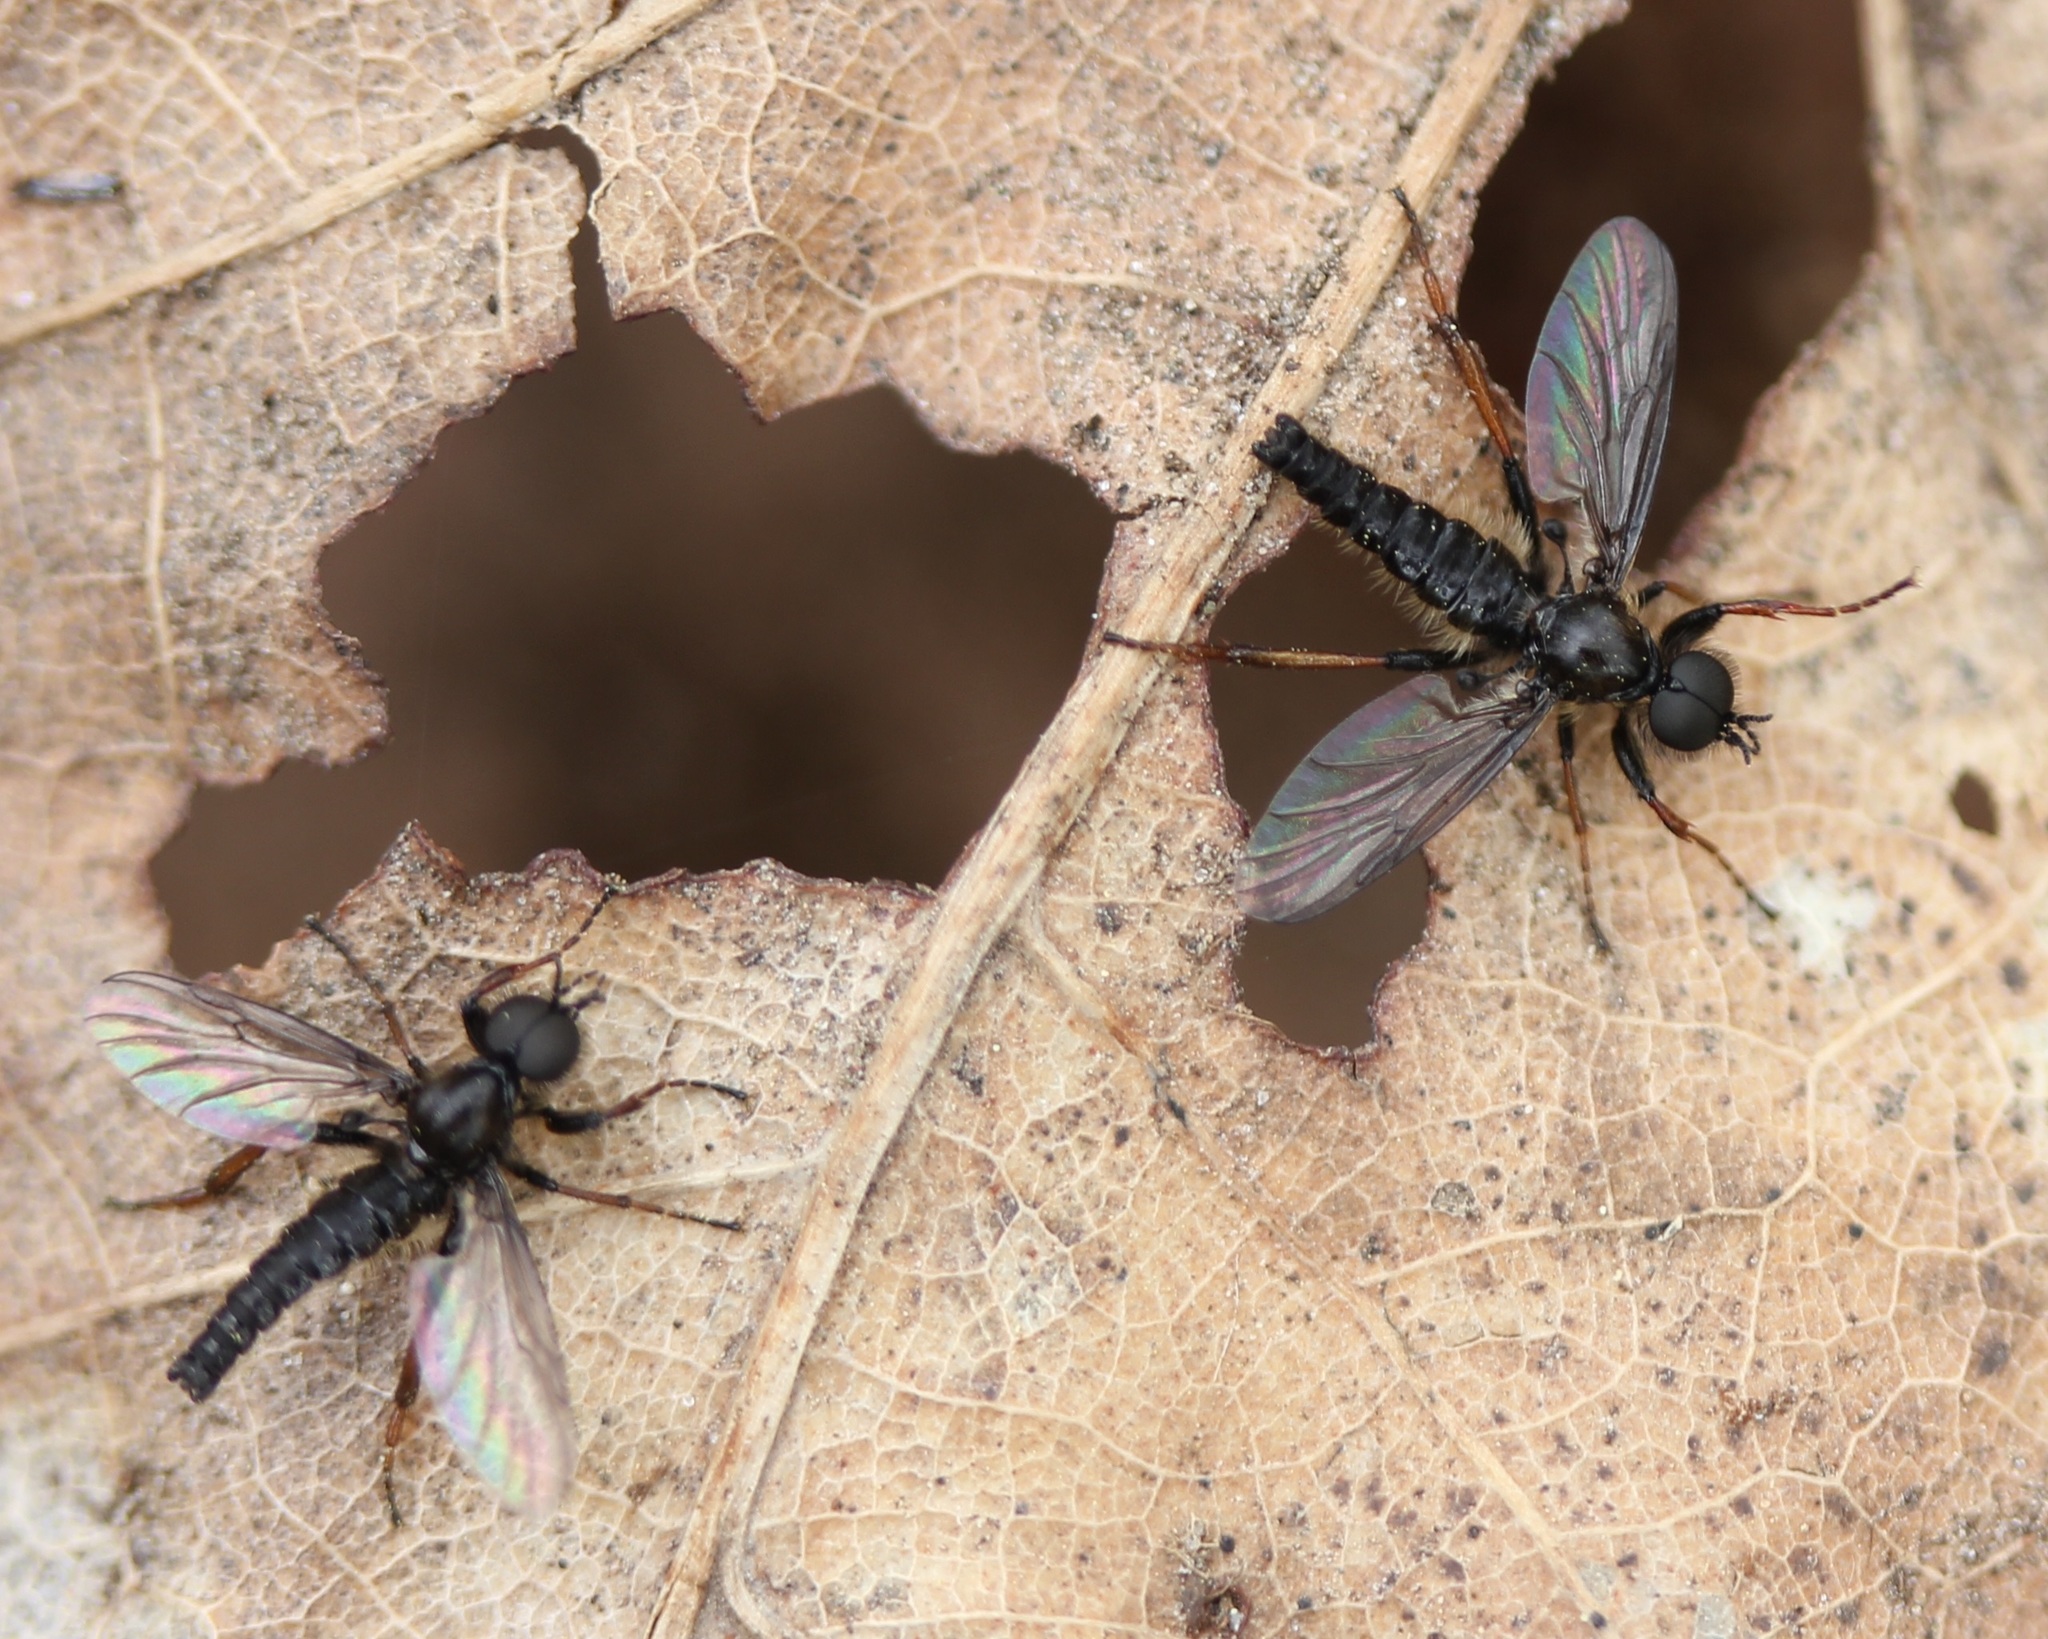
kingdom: Animalia
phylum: Arthropoda
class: Insecta
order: Diptera
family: Bibionidae
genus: Bibio
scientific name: Bibio lanigerus
